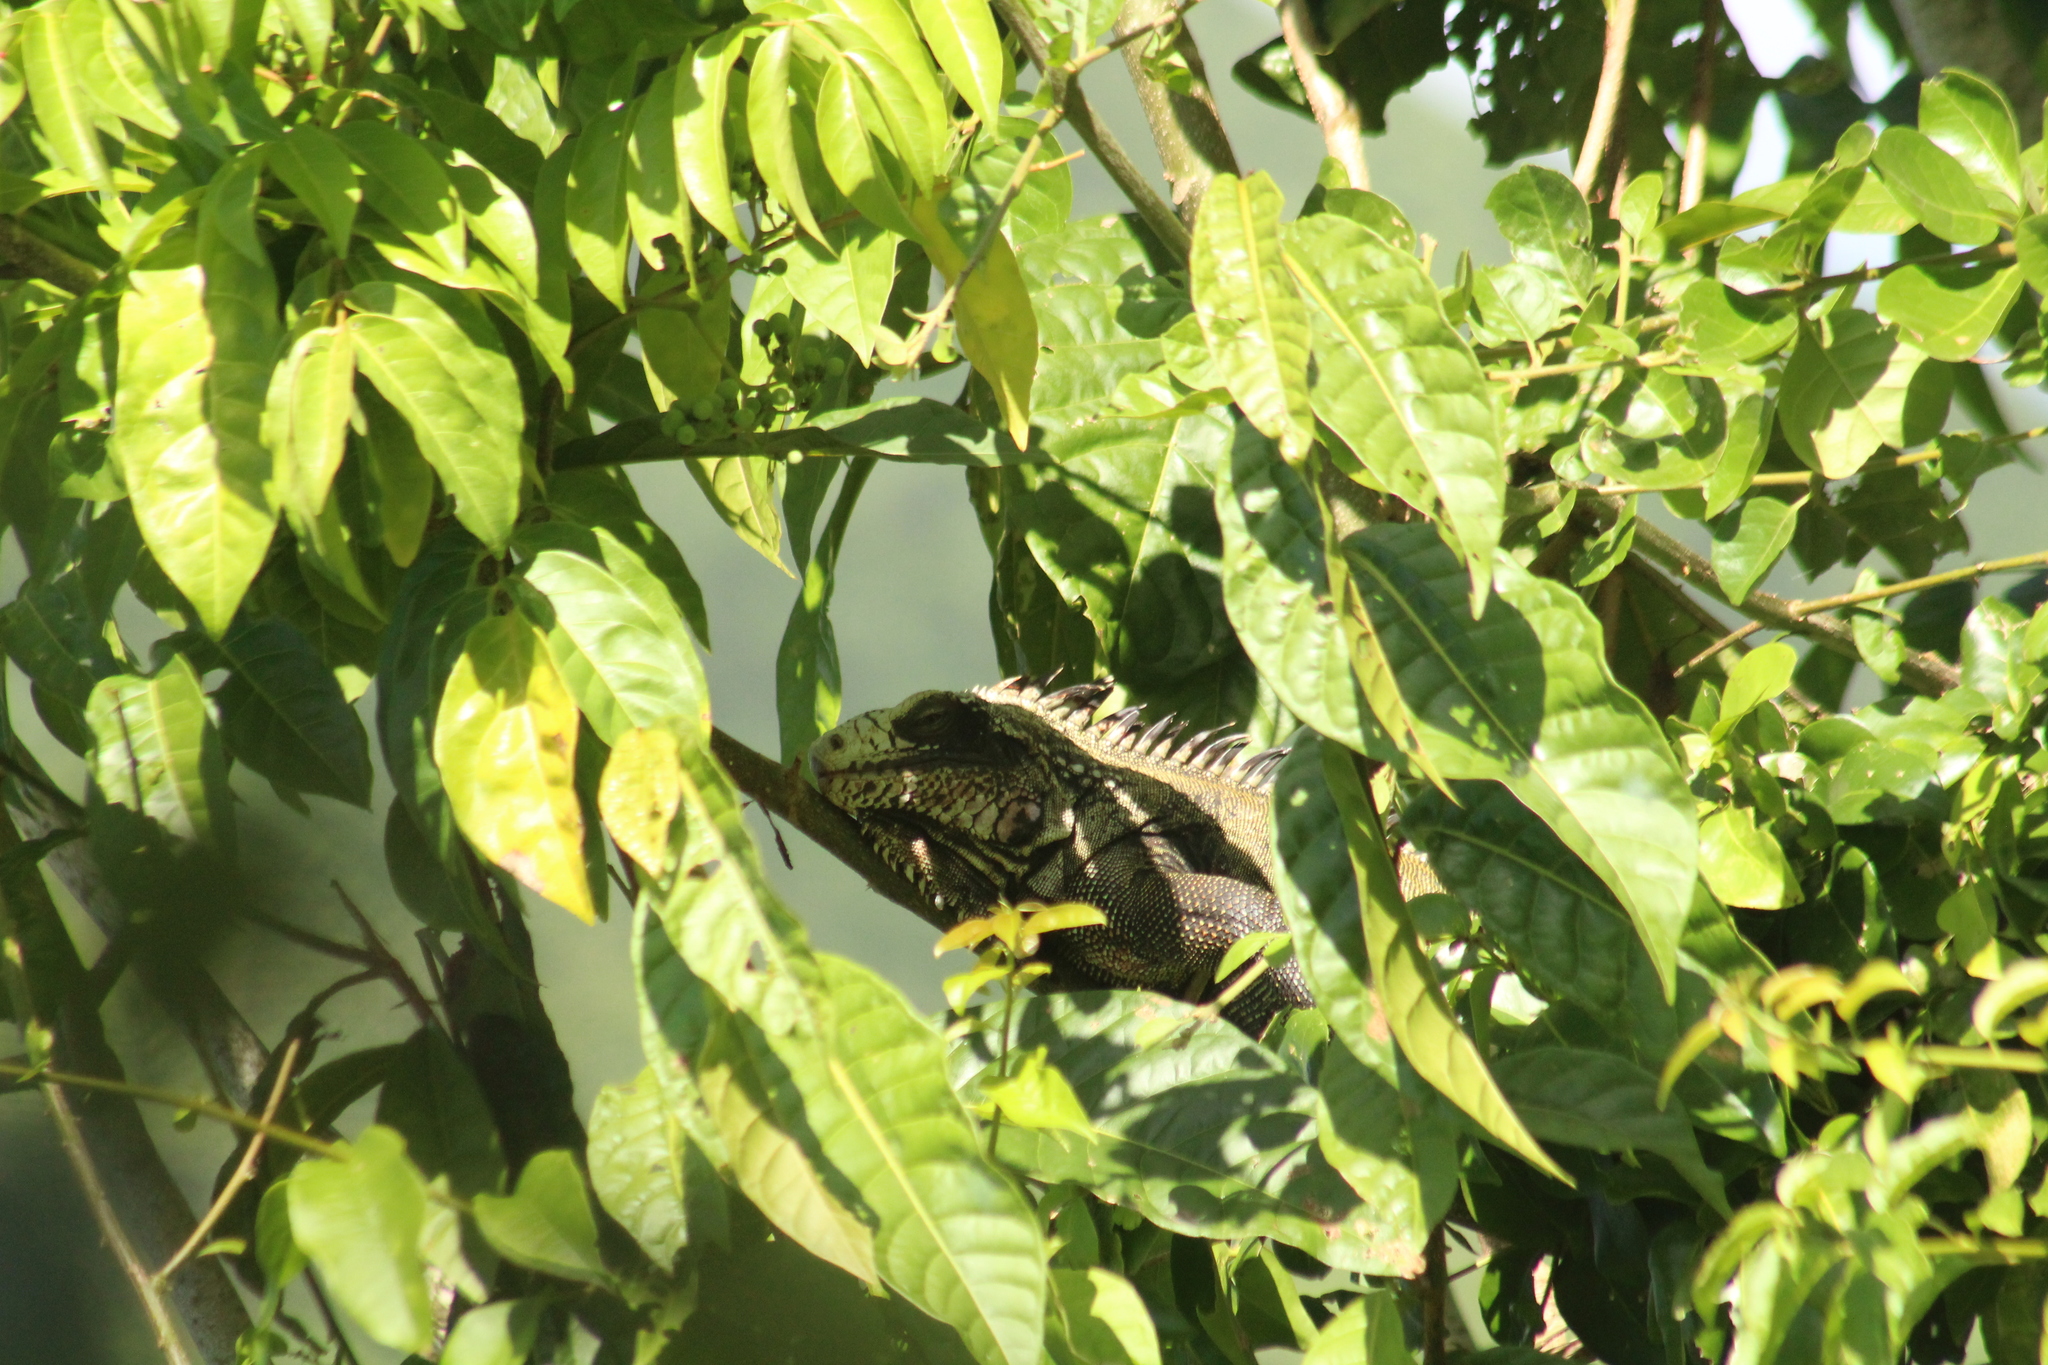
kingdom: Animalia
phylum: Chordata
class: Squamata
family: Iguanidae
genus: Iguana
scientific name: Iguana iguana
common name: Green iguana
